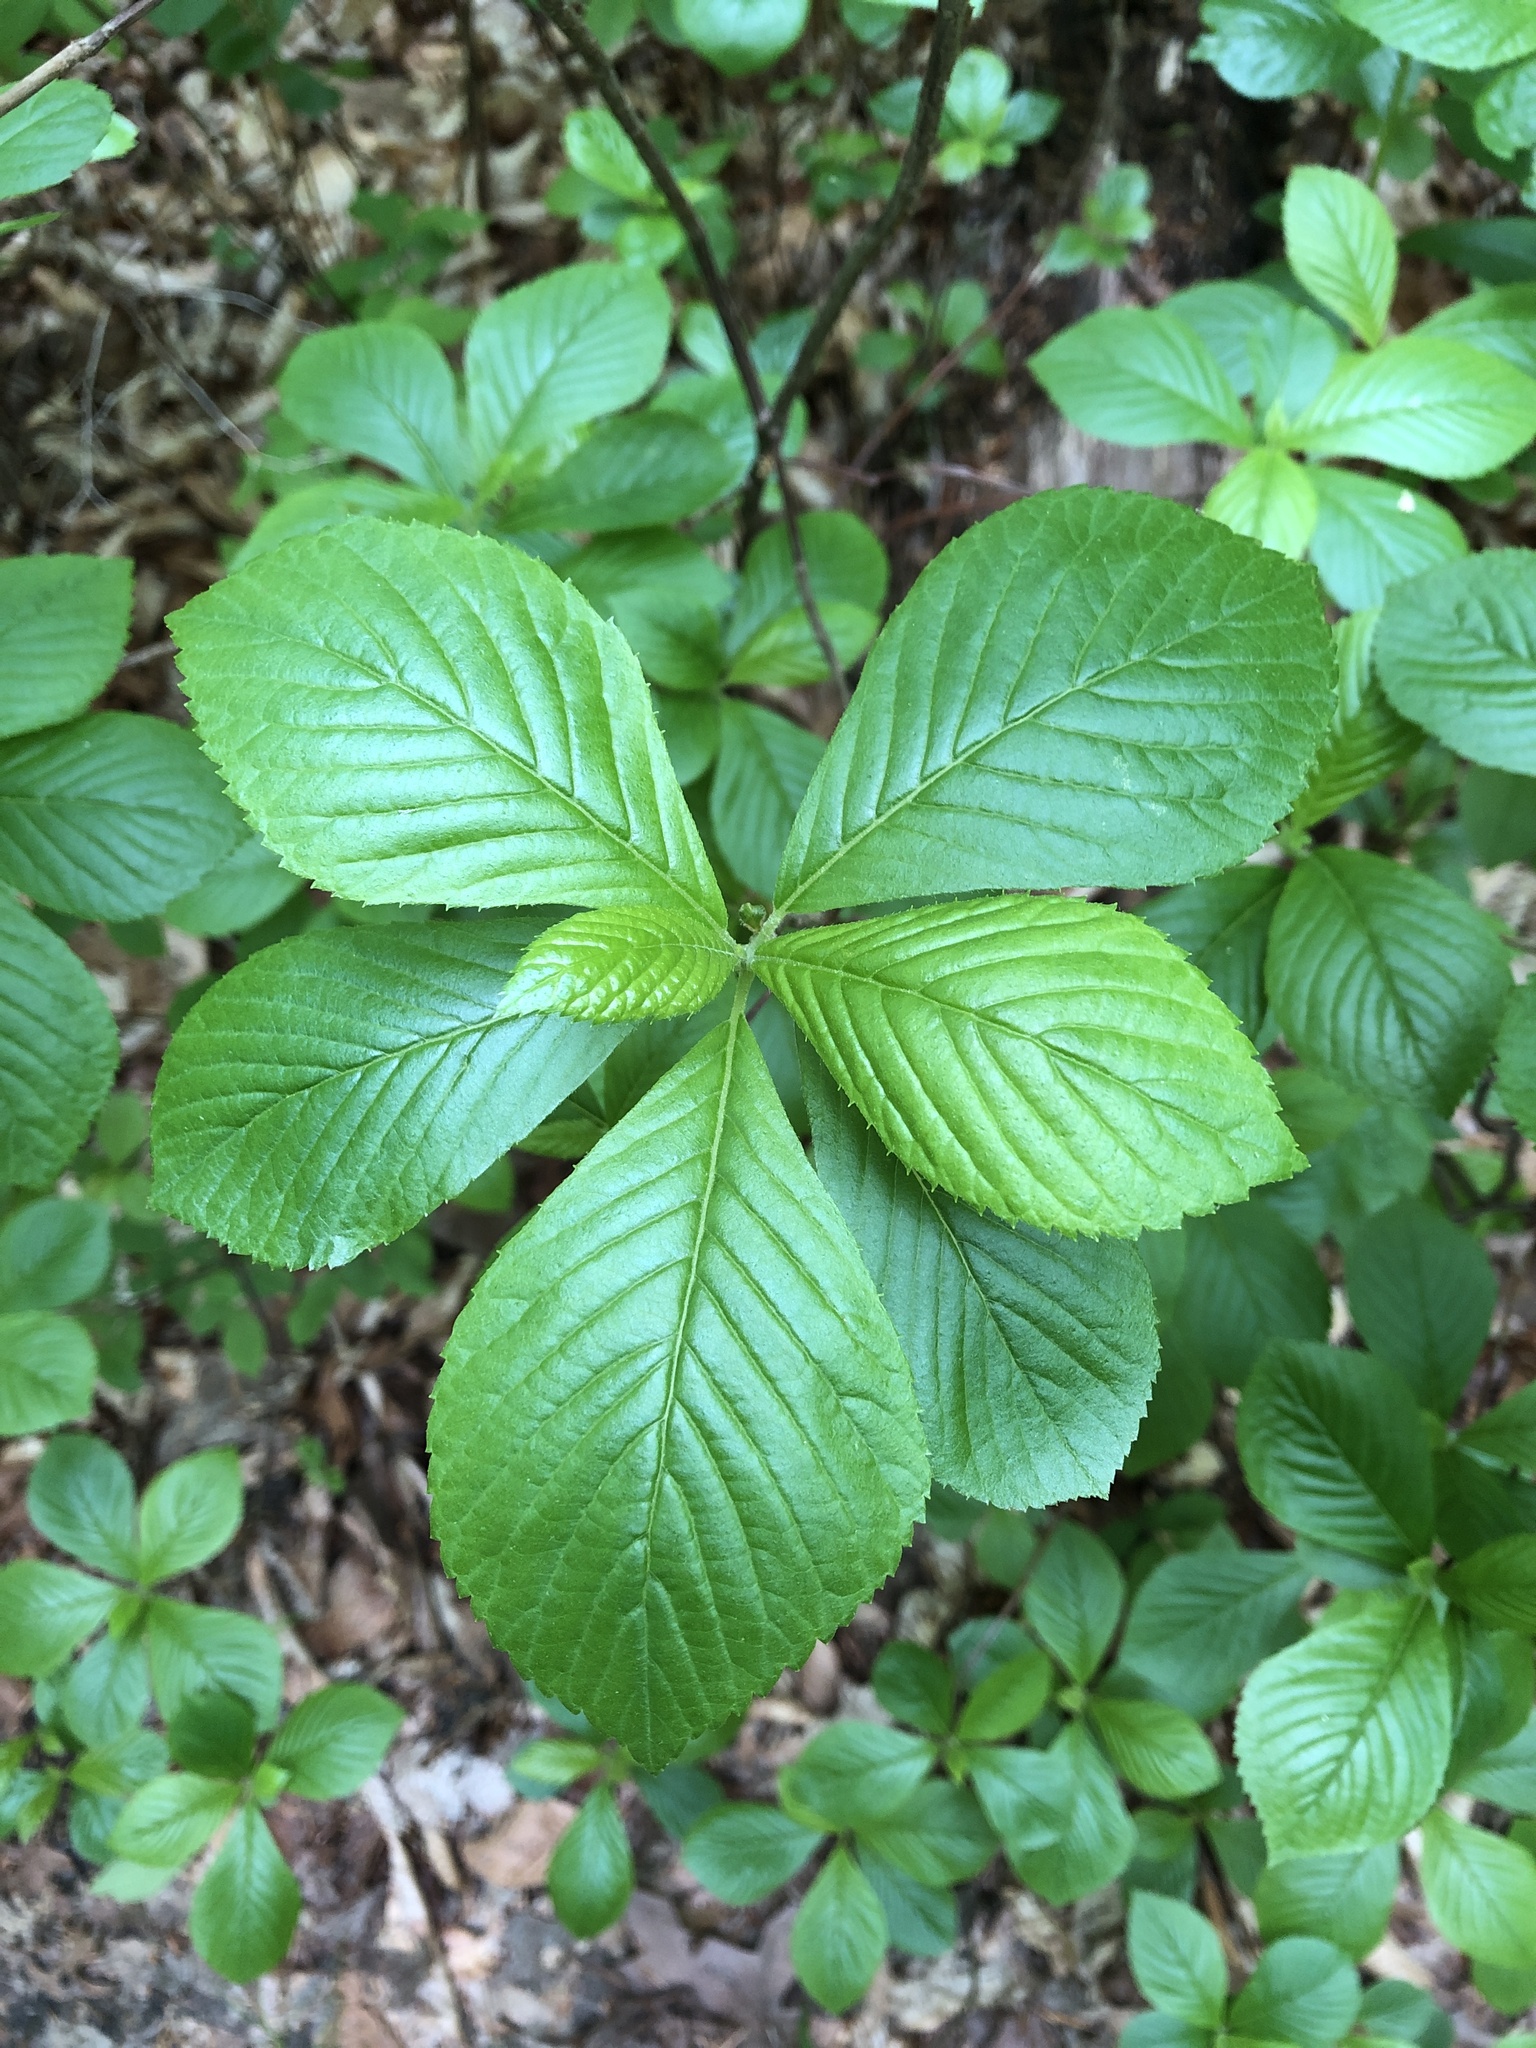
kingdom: Plantae
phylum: Tracheophyta
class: Magnoliopsida
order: Ericales
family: Clethraceae
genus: Clethra
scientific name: Clethra alnifolia
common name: Sweet pepperbush
